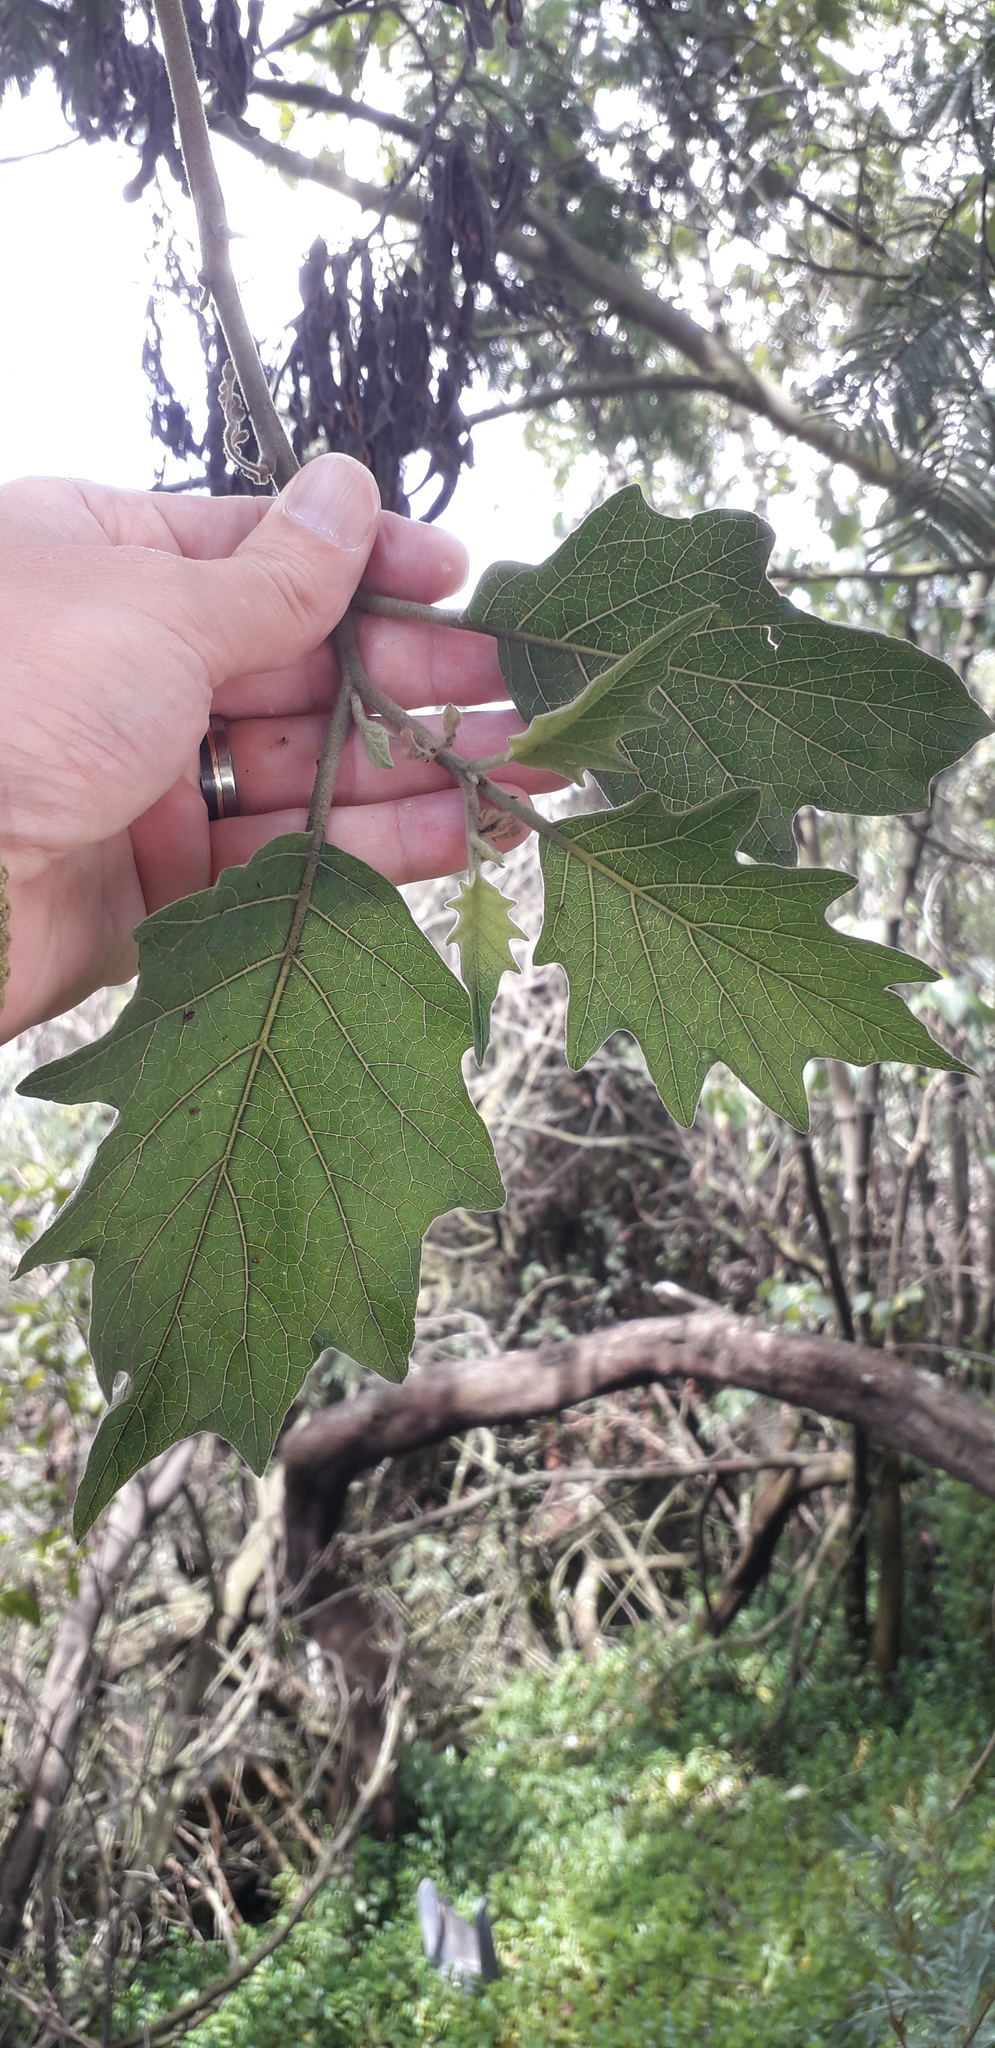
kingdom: Plantae
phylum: Tracheophyta
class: Magnoliopsida
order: Solanales
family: Solanaceae
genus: Solanum
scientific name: Solanum stellatiglandulosum
